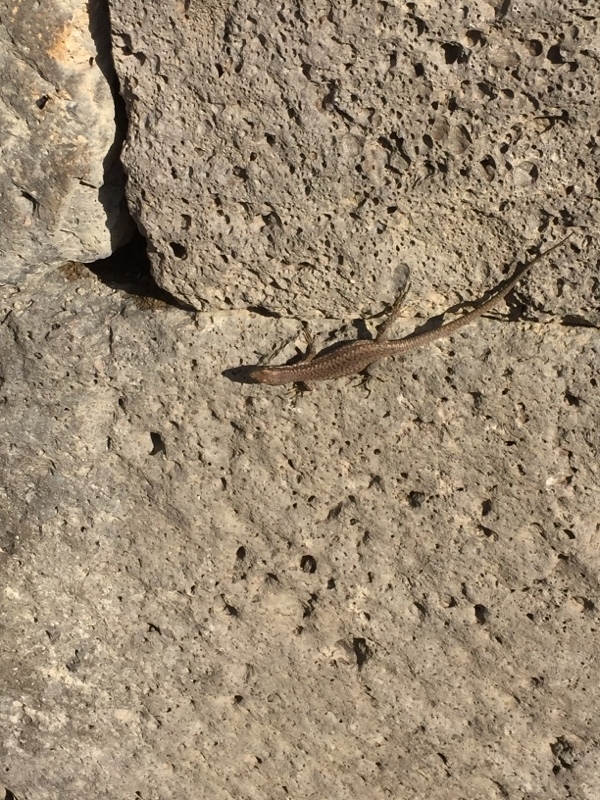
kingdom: Animalia
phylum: Chordata
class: Squamata
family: Lacertidae
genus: Darevskia
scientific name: Darevskia raddei
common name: Radde's lizard
